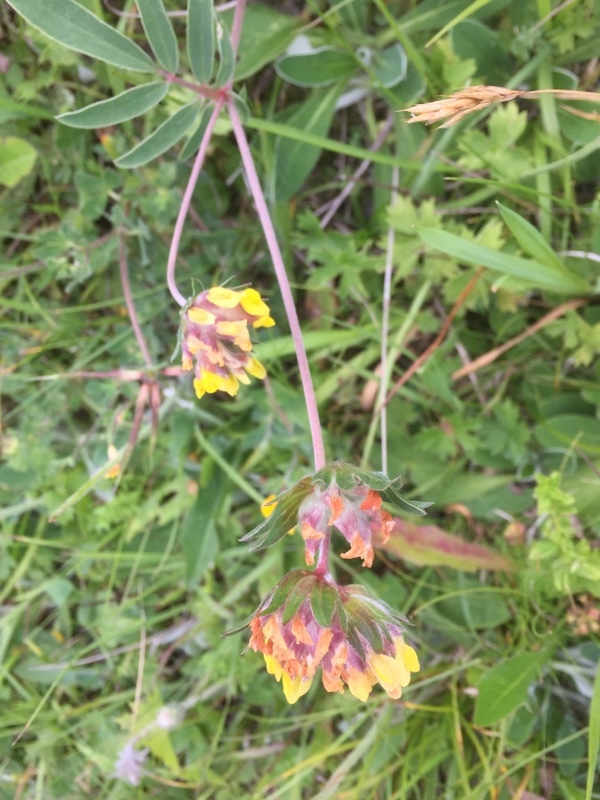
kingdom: Plantae
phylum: Tracheophyta
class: Magnoliopsida
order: Fabales
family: Fabaceae
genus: Anthyllis
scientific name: Anthyllis vulneraria
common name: Kidney vetch
